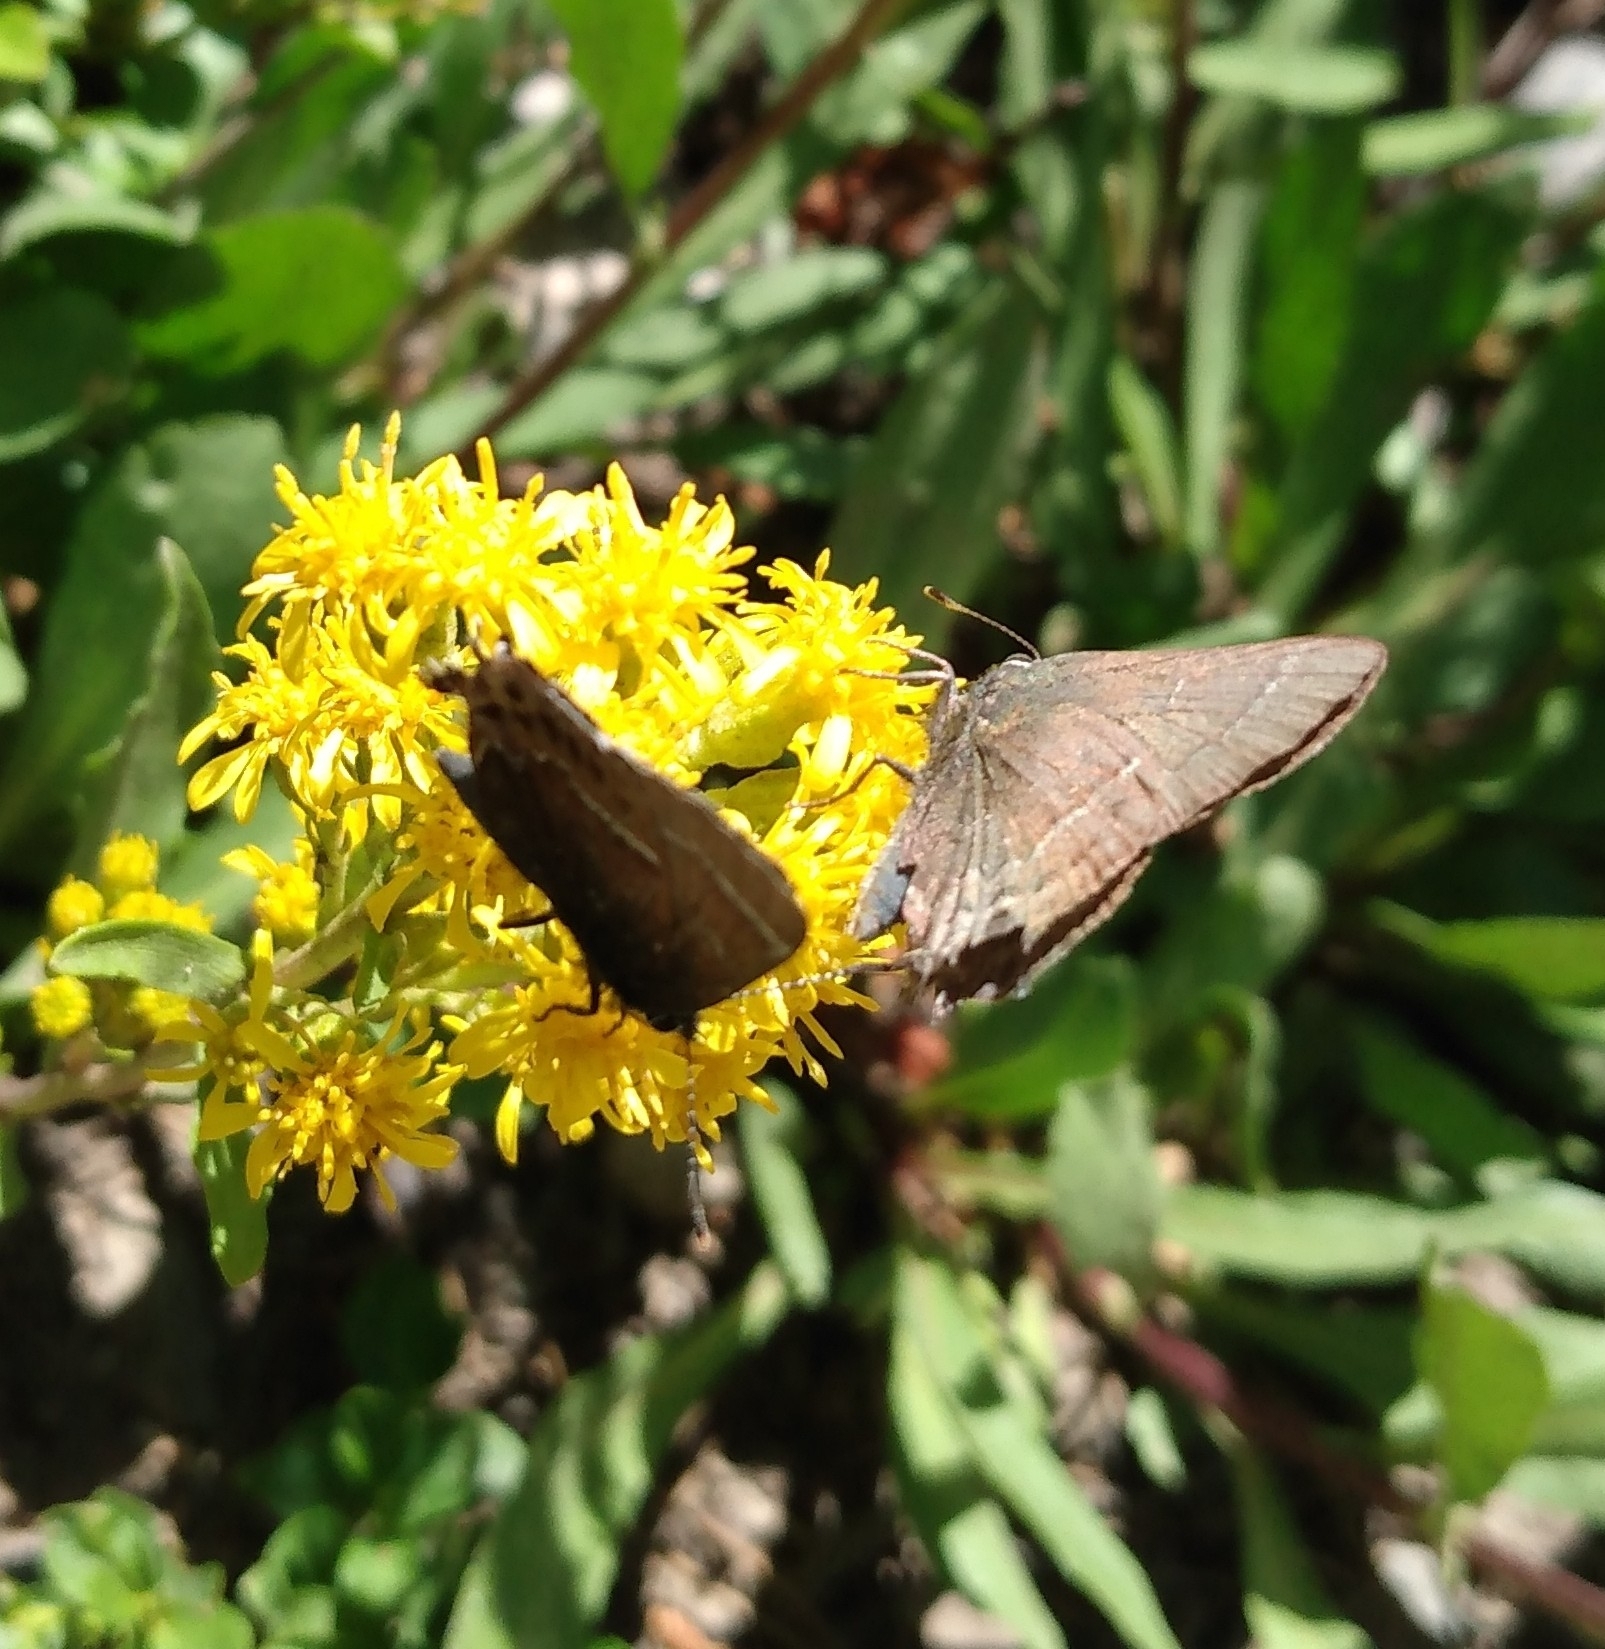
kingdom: Animalia
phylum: Arthropoda
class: Insecta
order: Lepidoptera
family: Lycaenidae
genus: Mitoura
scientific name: Mitoura spinetorum
